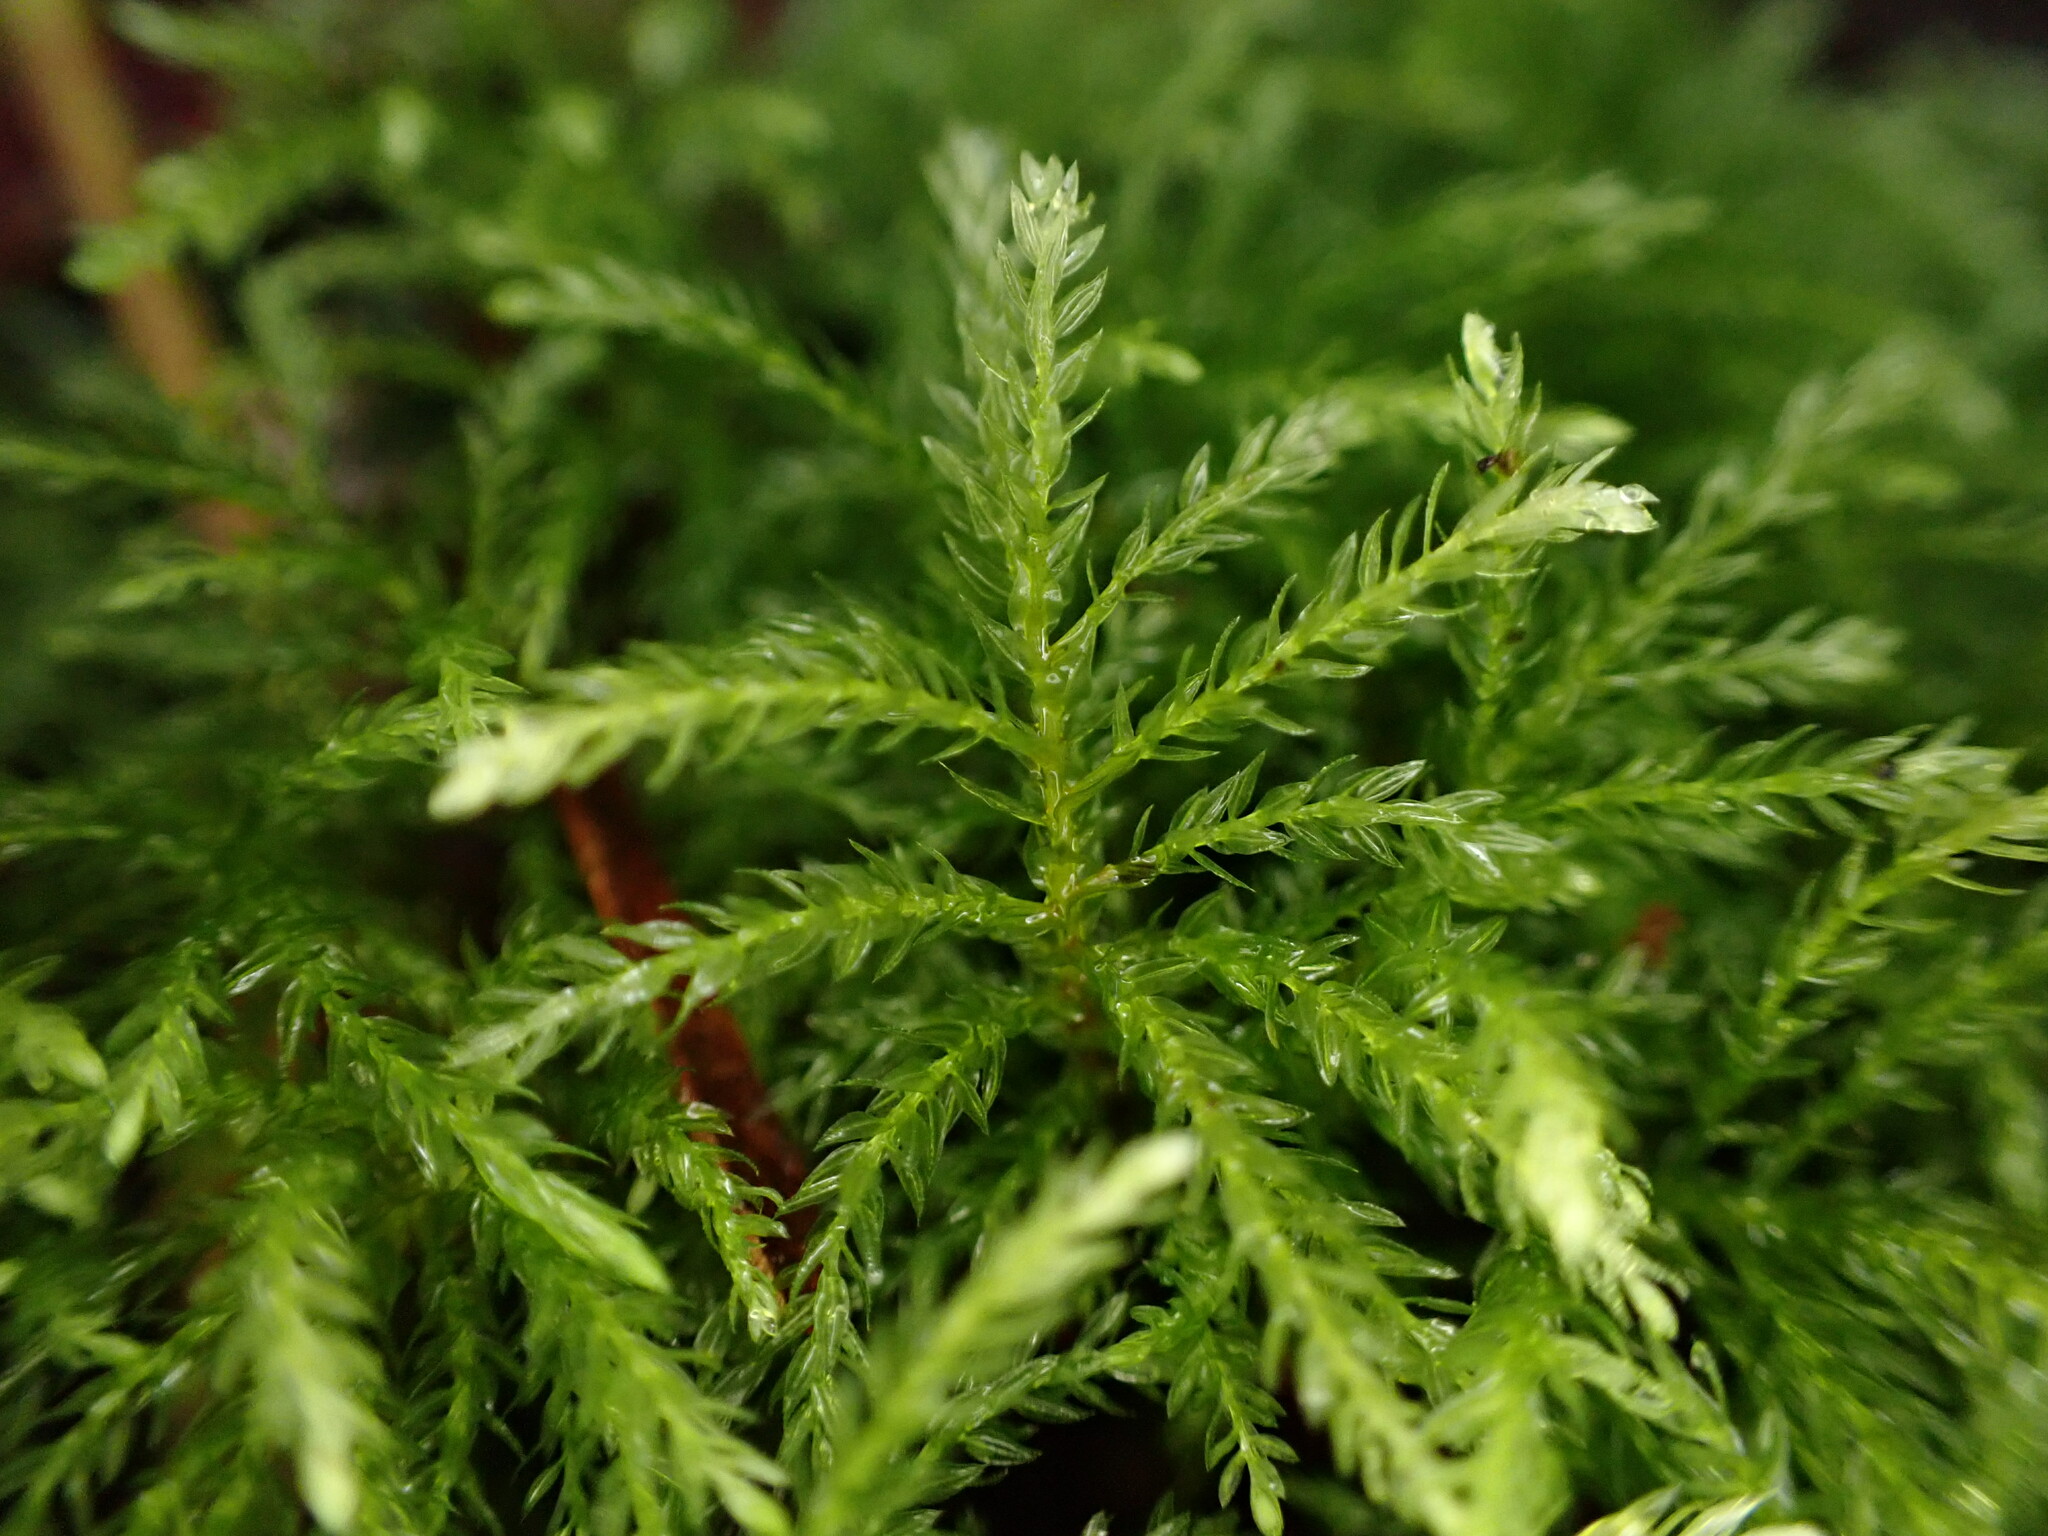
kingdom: Plantae
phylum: Bryophyta
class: Bryopsida
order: Bryales
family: Mniaceae
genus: Leucolepis
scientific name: Leucolepis acanthoneura
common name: Leucolepis umbrella moss
